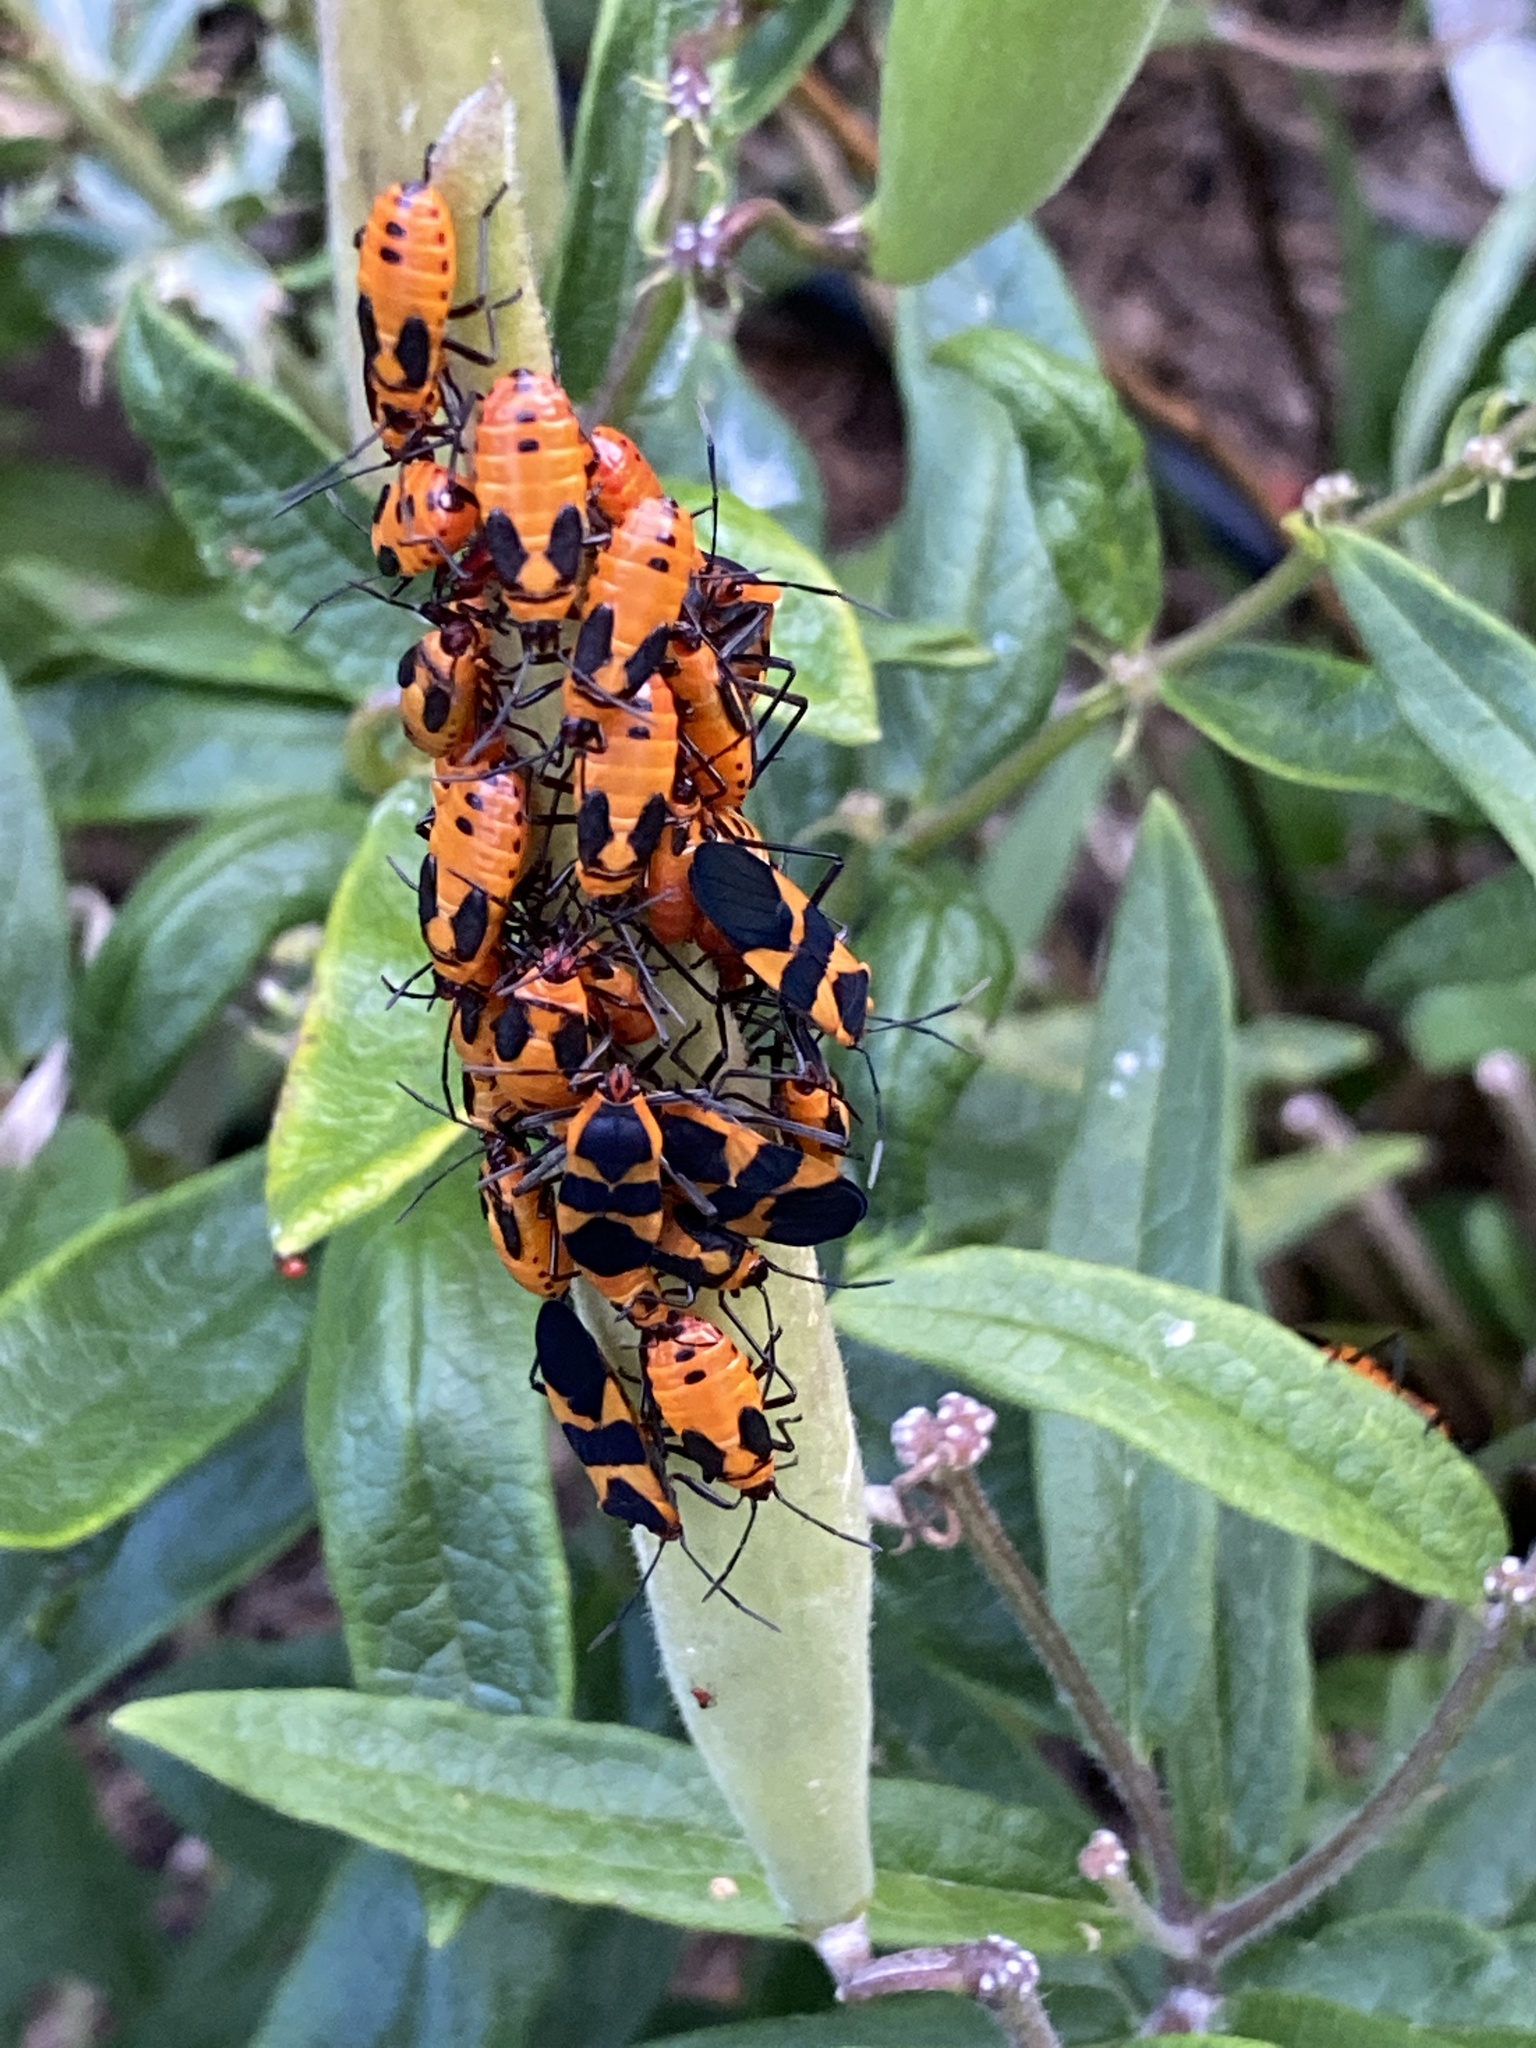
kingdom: Animalia
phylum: Arthropoda
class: Insecta
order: Hemiptera
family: Lygaeidae
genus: Oncopeltus
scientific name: Oncopeltus fasciatus
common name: Large milkweed bug
